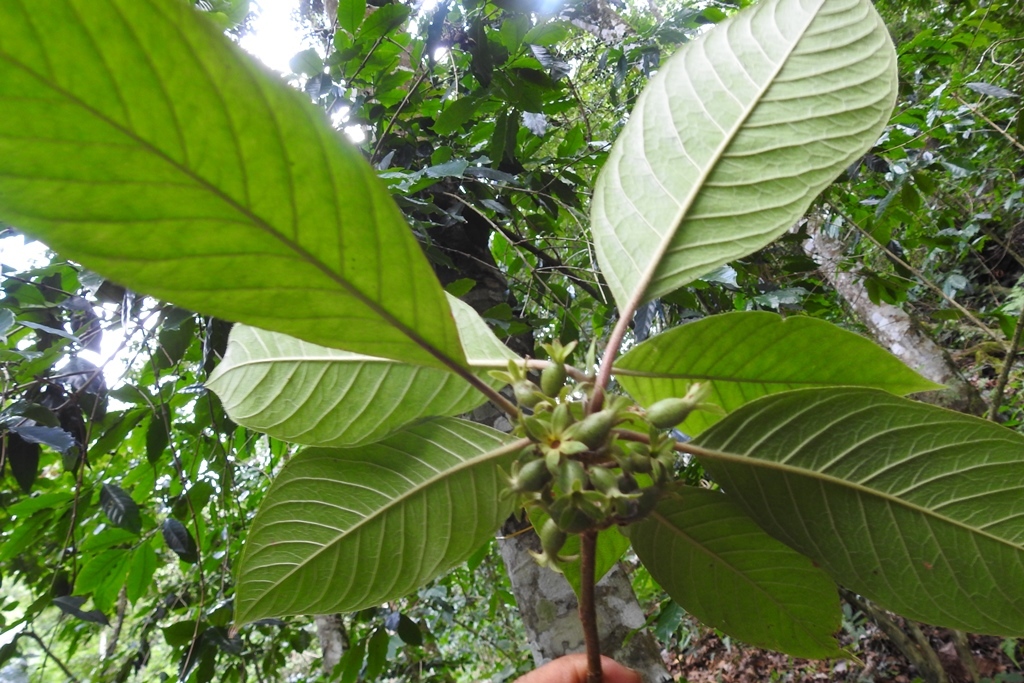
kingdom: Plantae
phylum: Tracheophyta
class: Magnoliopsida
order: Gentianales
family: Rubiaceae
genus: Sommera
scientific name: Sommera grandis
